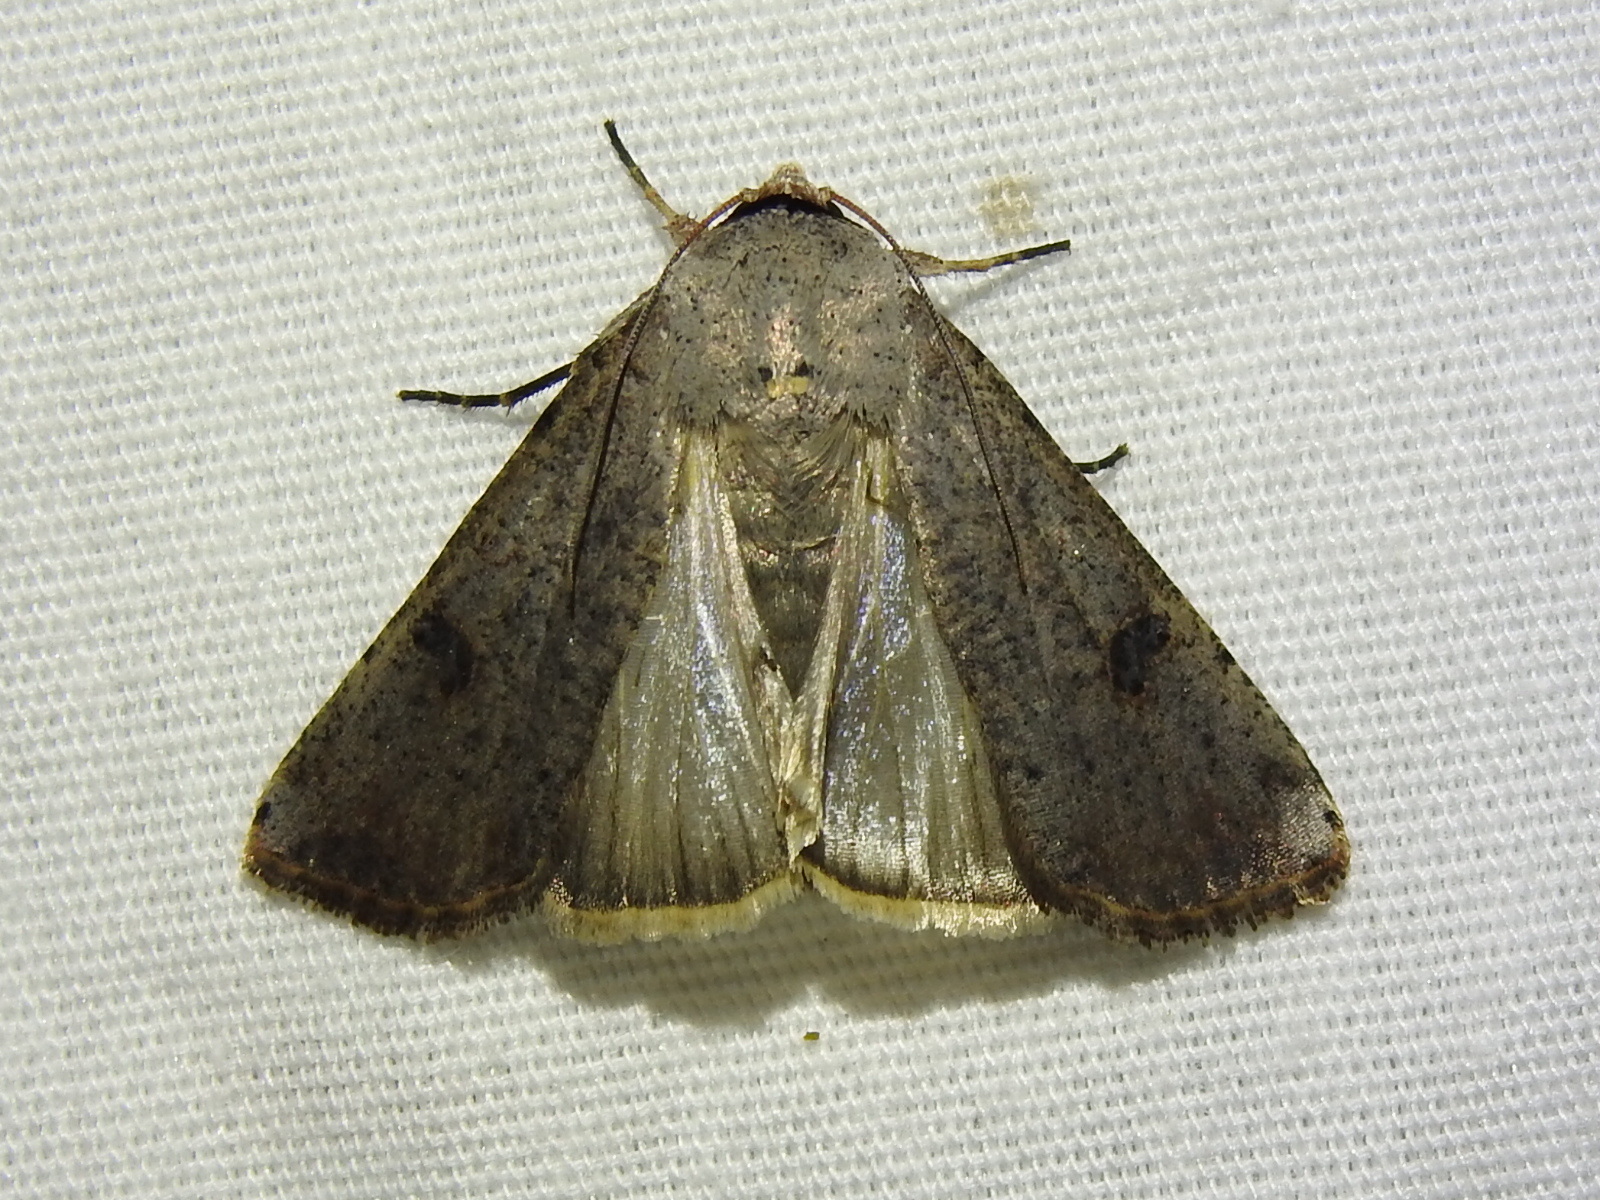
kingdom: Animalia
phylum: Arthropoda
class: Insecta
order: Lepidoptera
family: Noctuidae
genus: Anicla
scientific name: Anicla infecta
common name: Green cutworm
